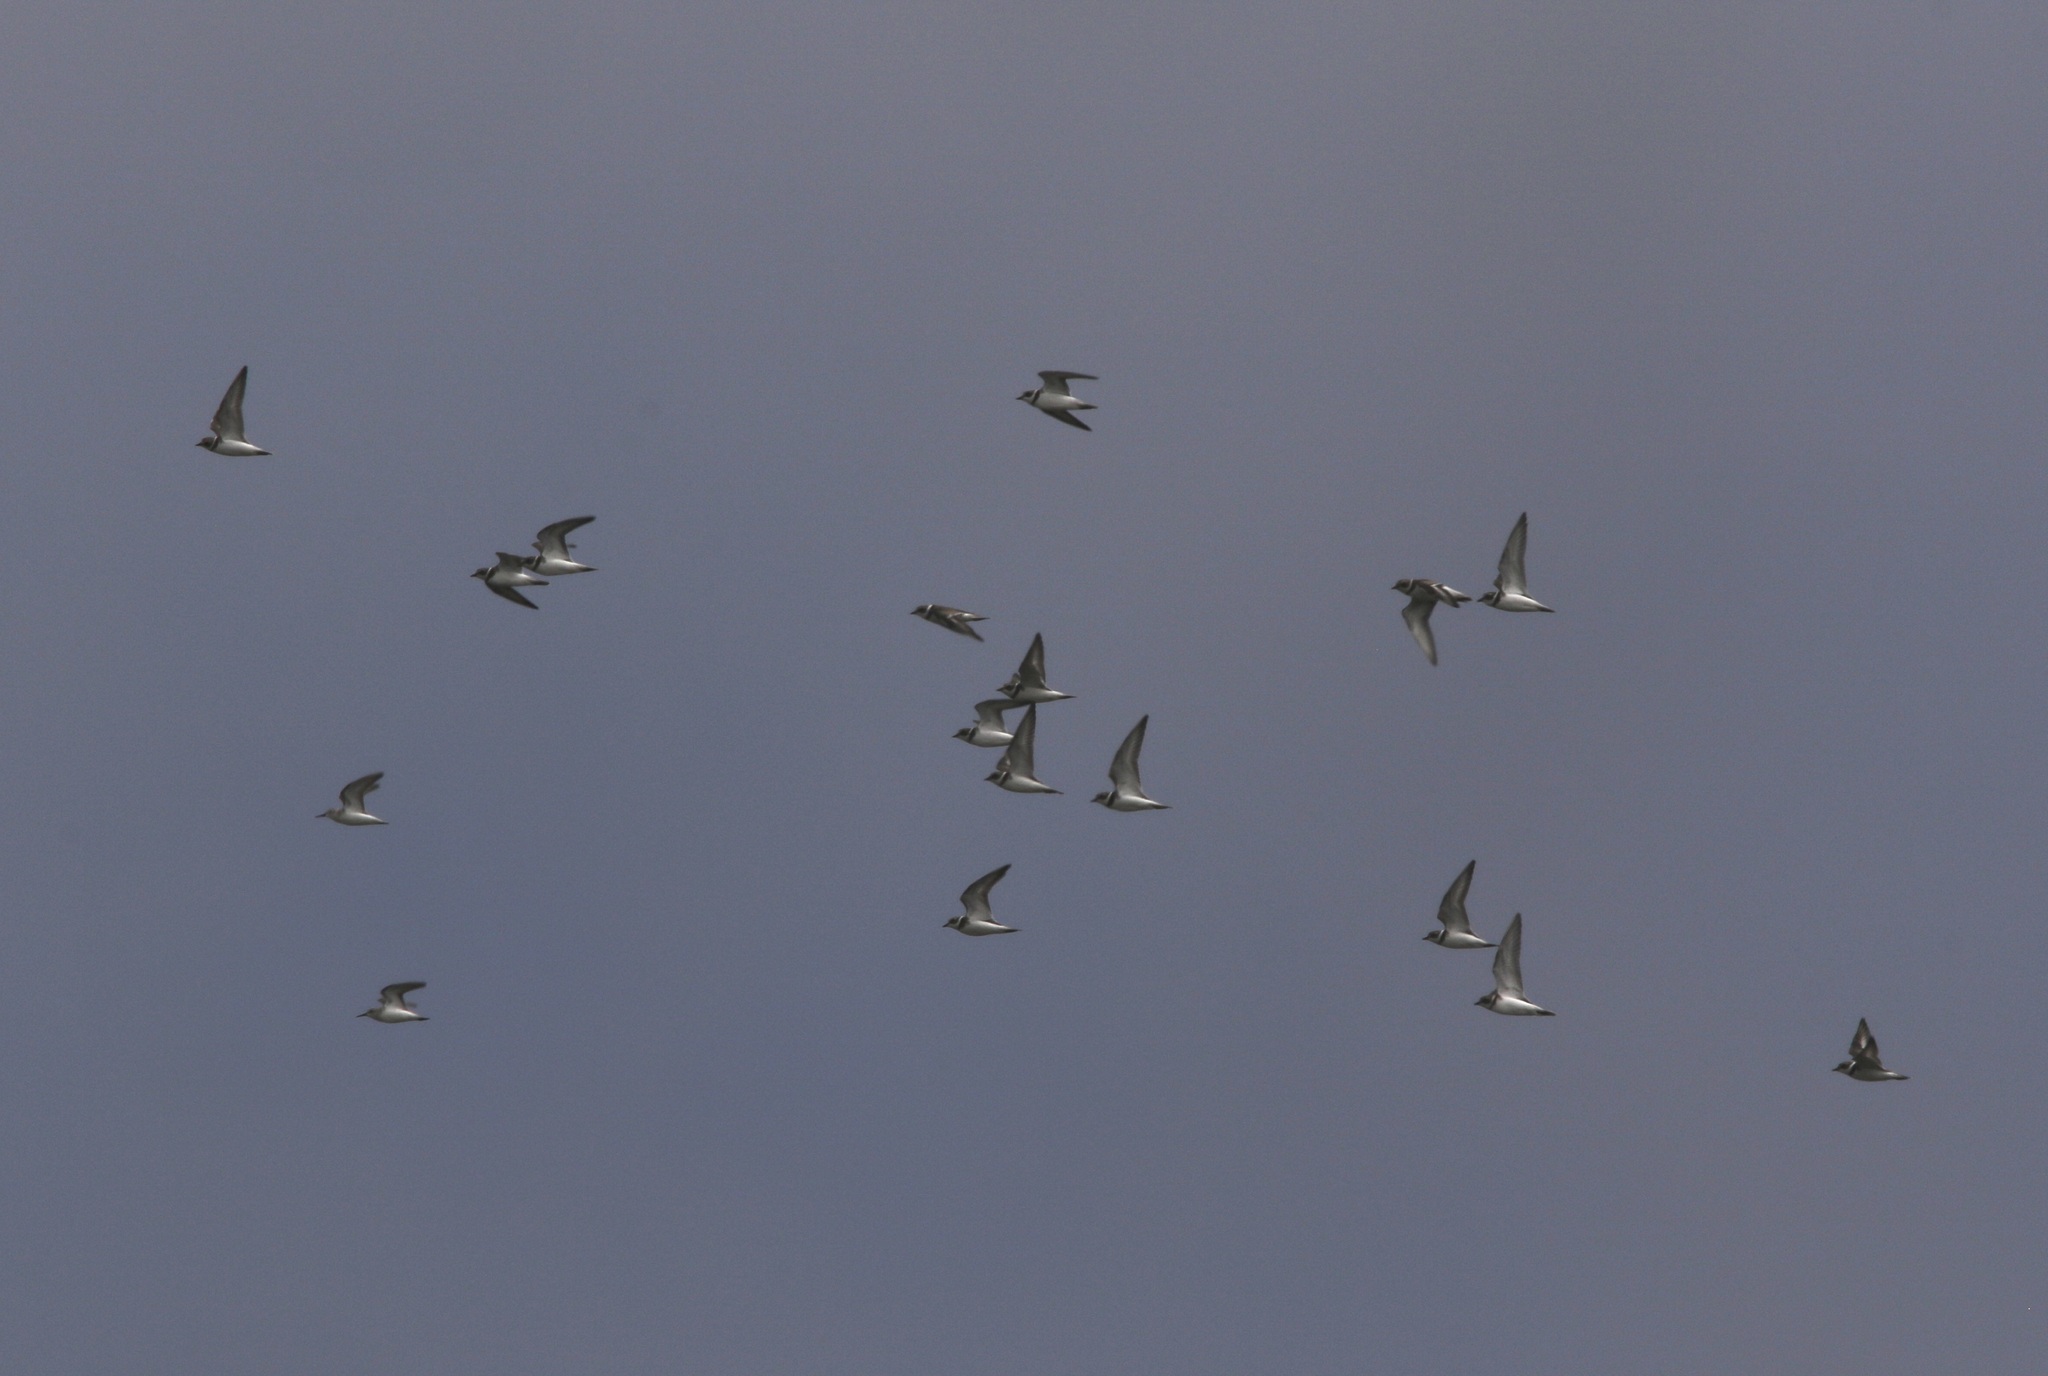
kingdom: Animalia
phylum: Chordata
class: Aves
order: Charadriiformes
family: Charadriidae
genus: Charadrius
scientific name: Charadrius semipalmatus
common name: Semipalmated plover
